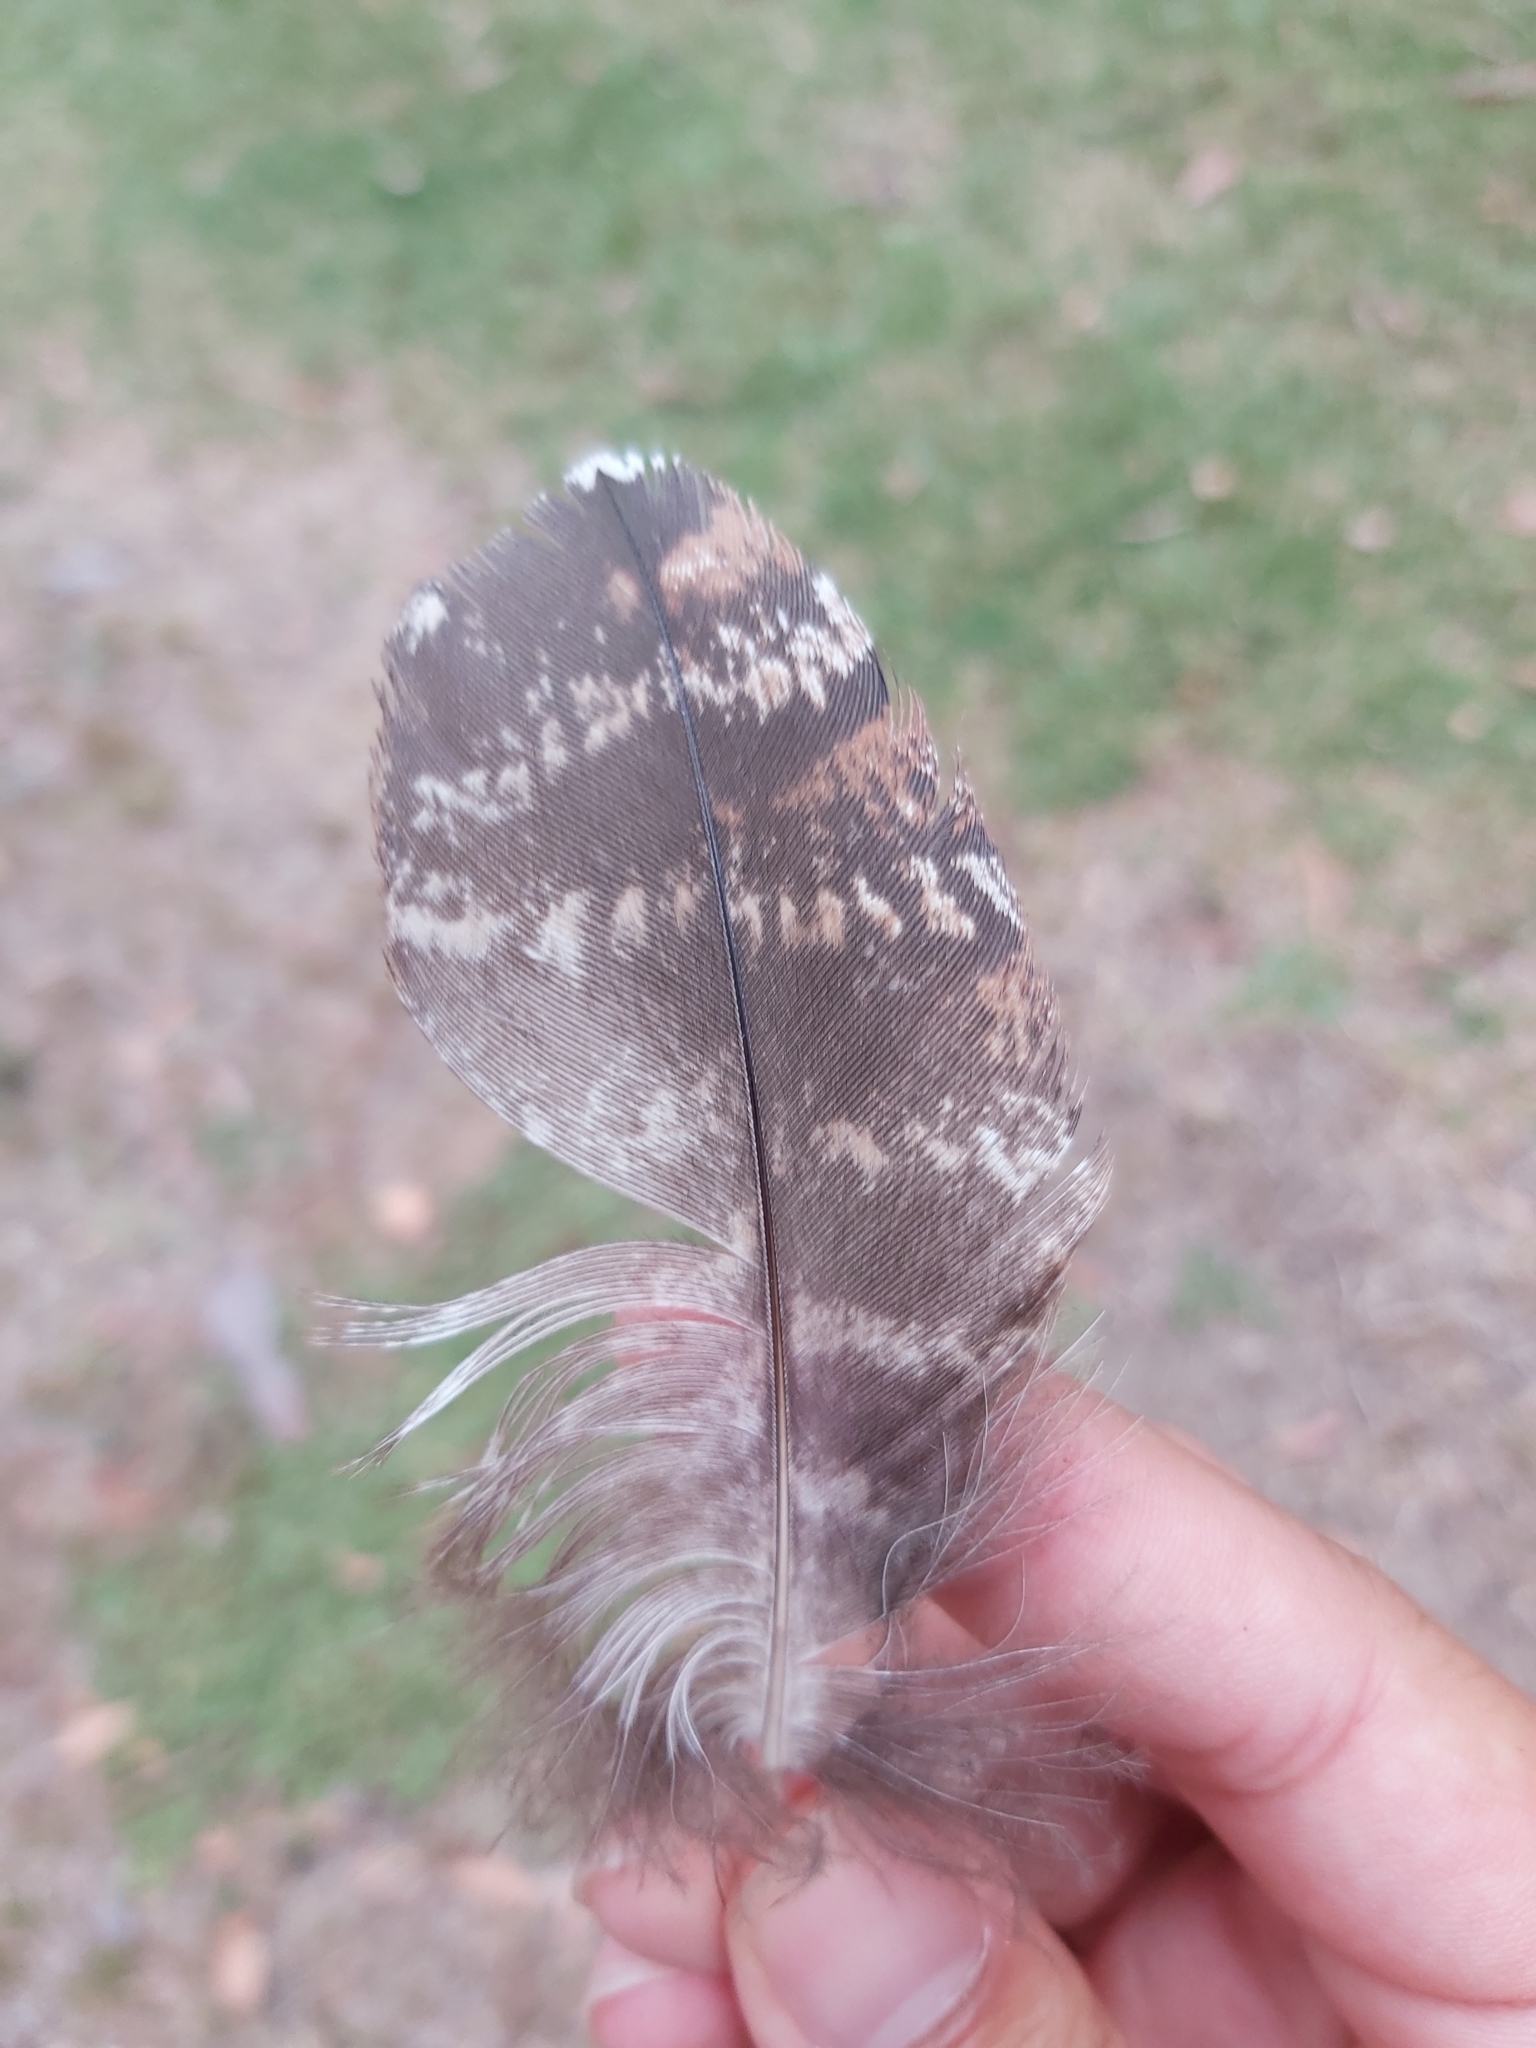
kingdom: Animalia
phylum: Chordata
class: Aves
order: Caprimulgiformes
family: Podargidae
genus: Podargus
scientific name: Podargus strigoides
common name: Tawny frogmouth
